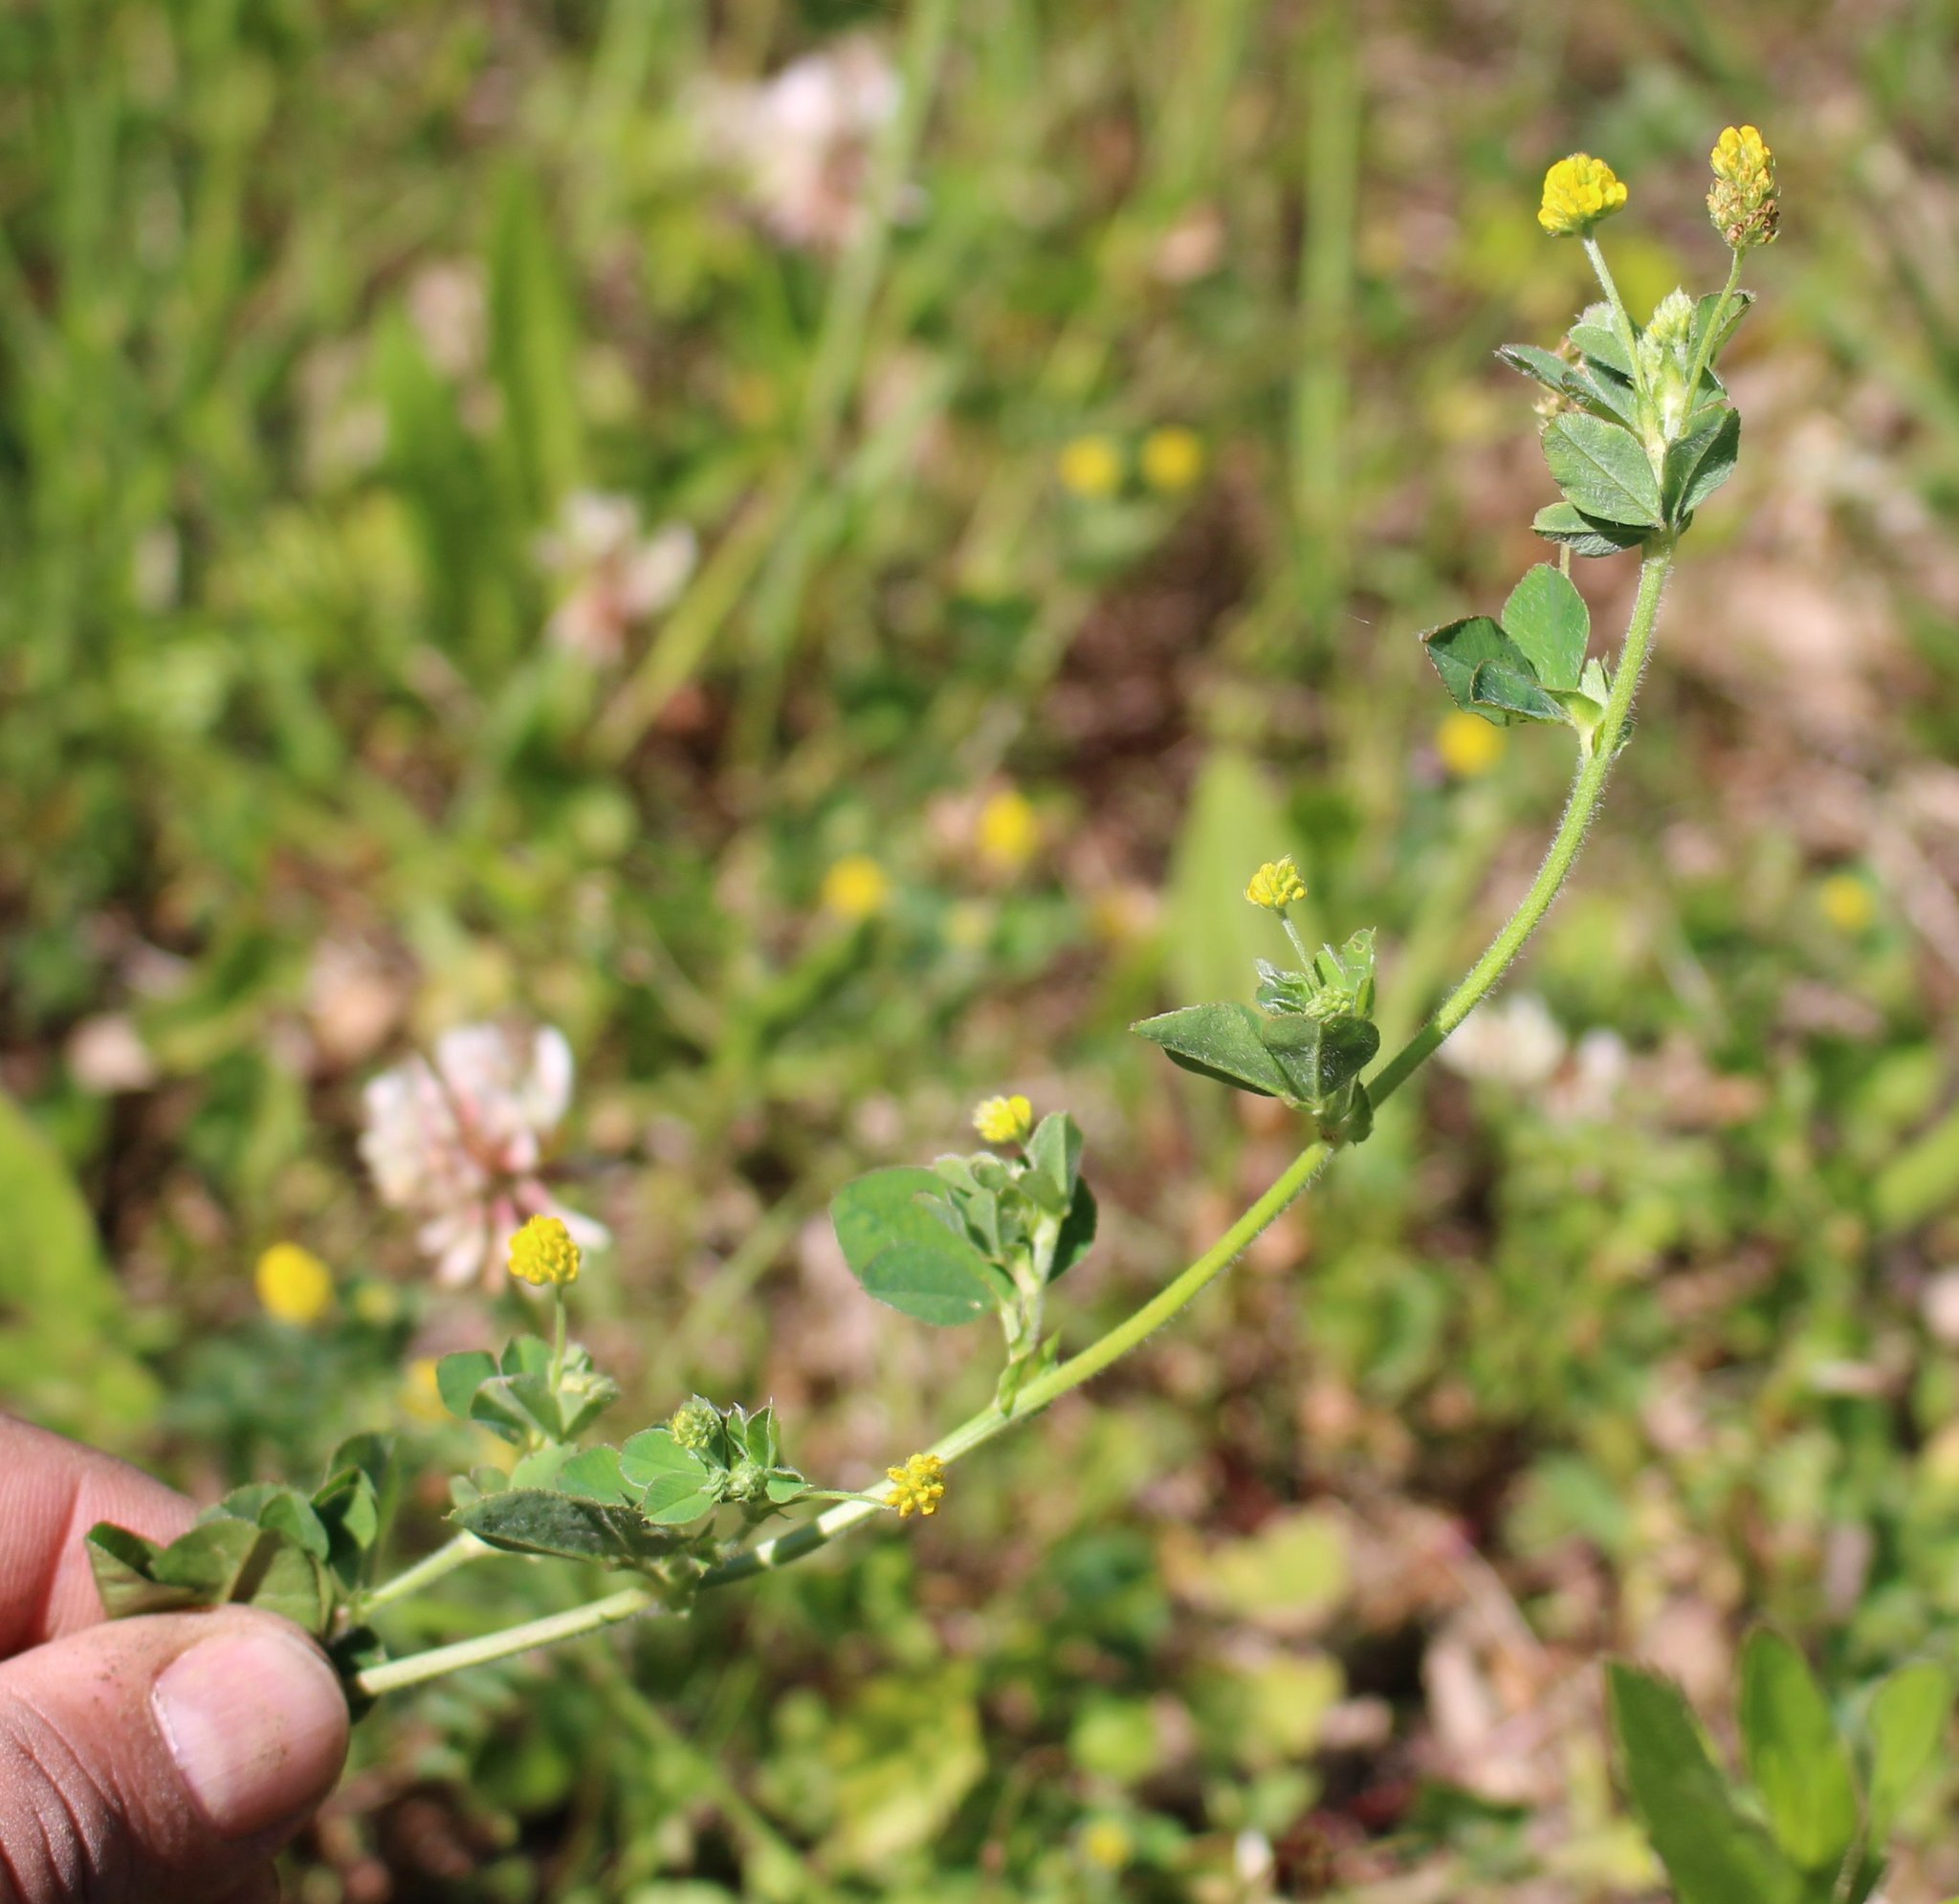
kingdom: Plantae
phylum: Tracheophyta
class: Magnoliopsida
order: Fabales
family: Fabaceae
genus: Medicago
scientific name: Medicago lupulina
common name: Black medick
